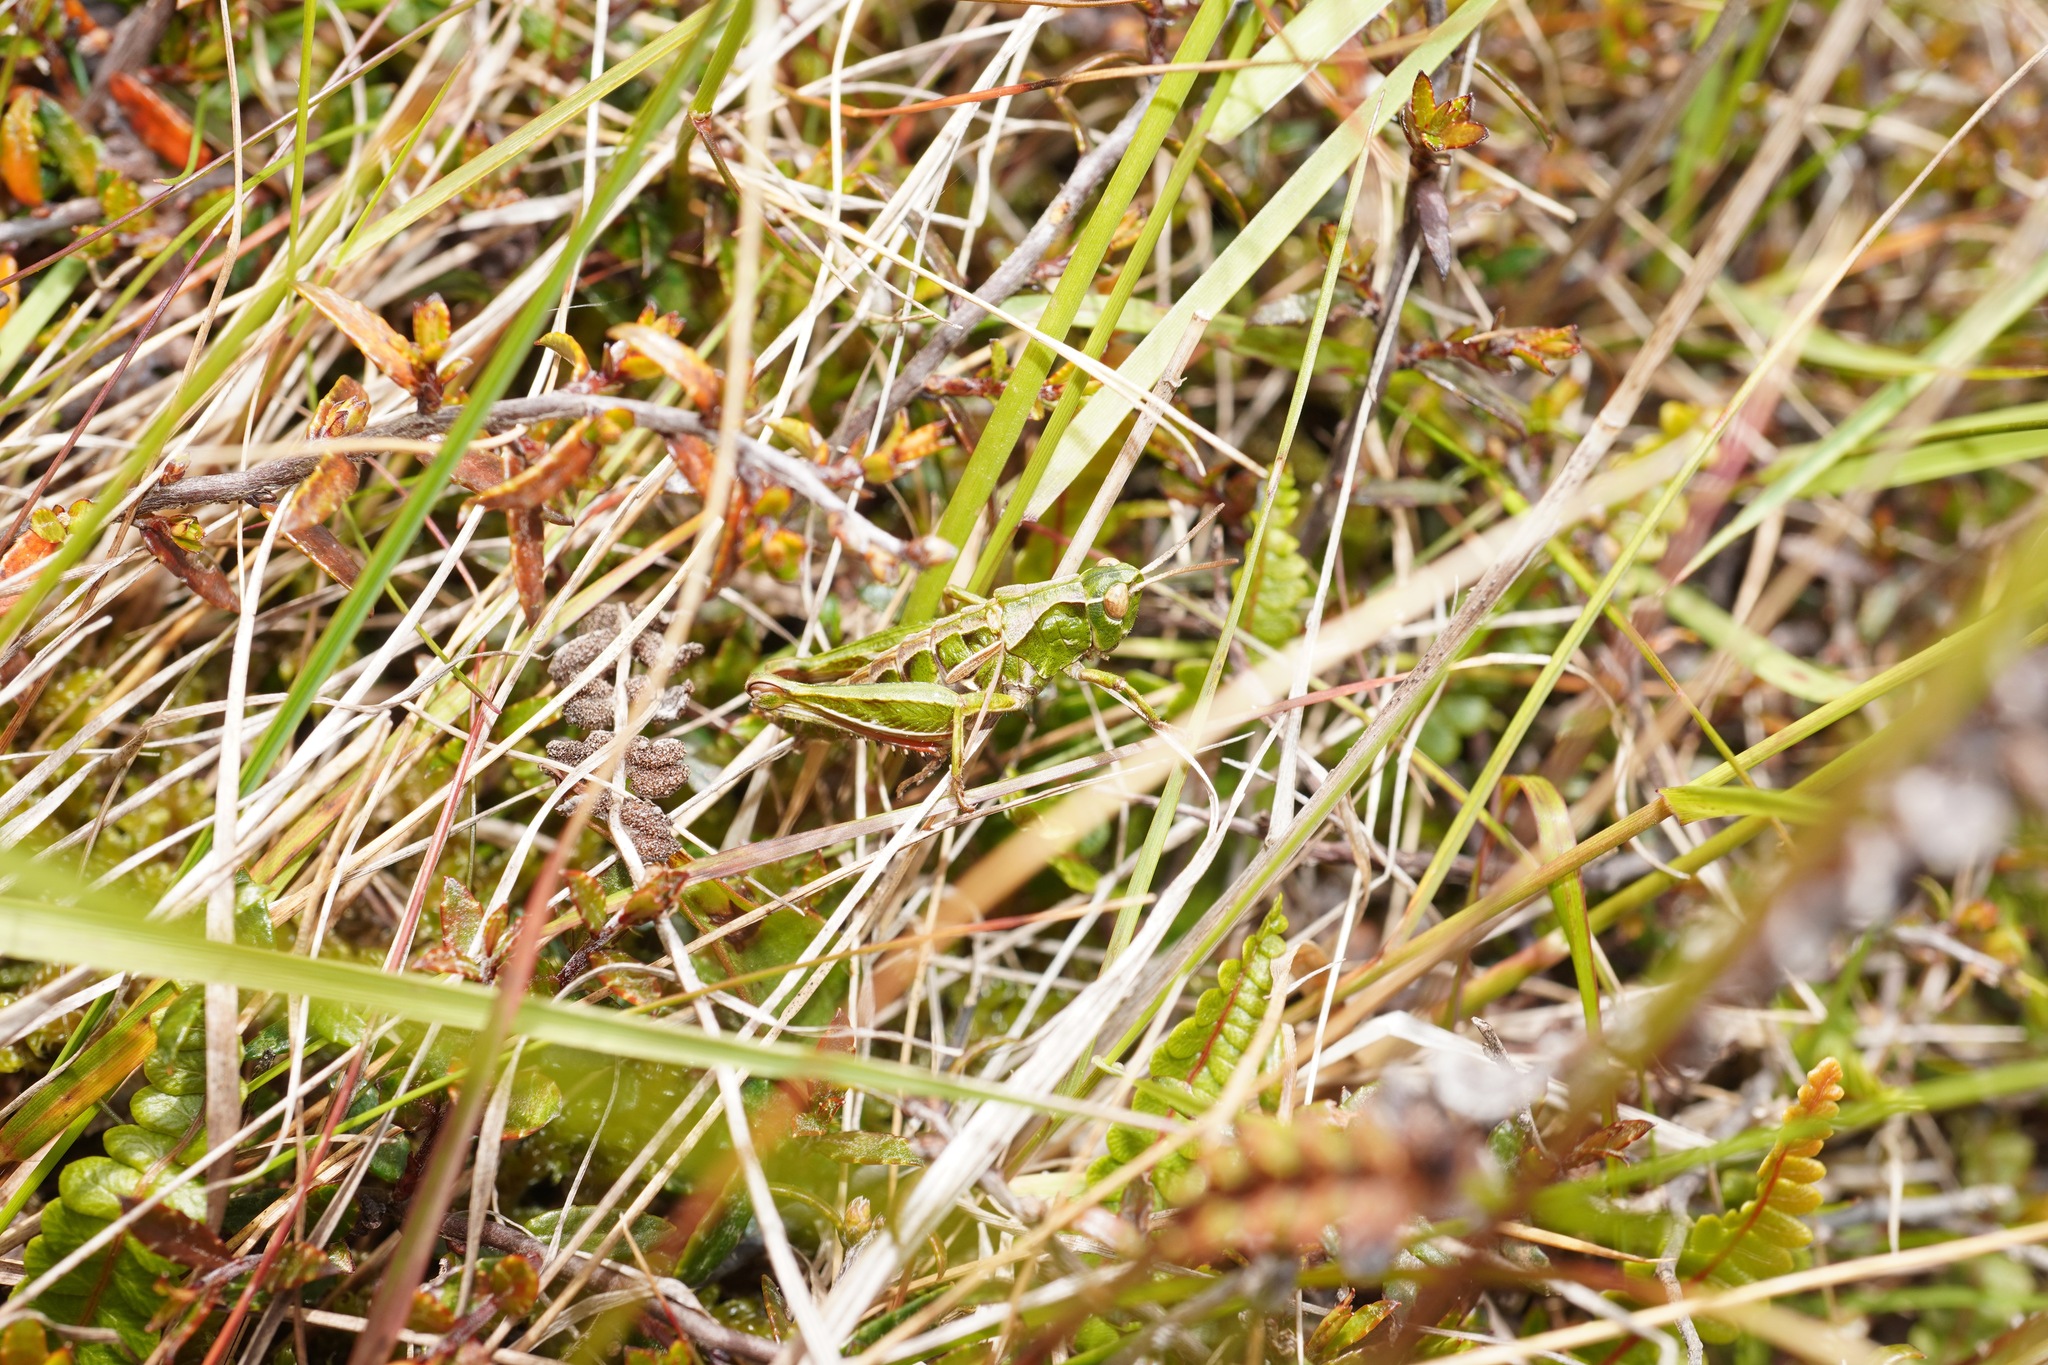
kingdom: Animalia
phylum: Arthropoda
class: Insecta
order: Orthoptera
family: Acrididae
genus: Sigaus
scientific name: Sigaus campestris
